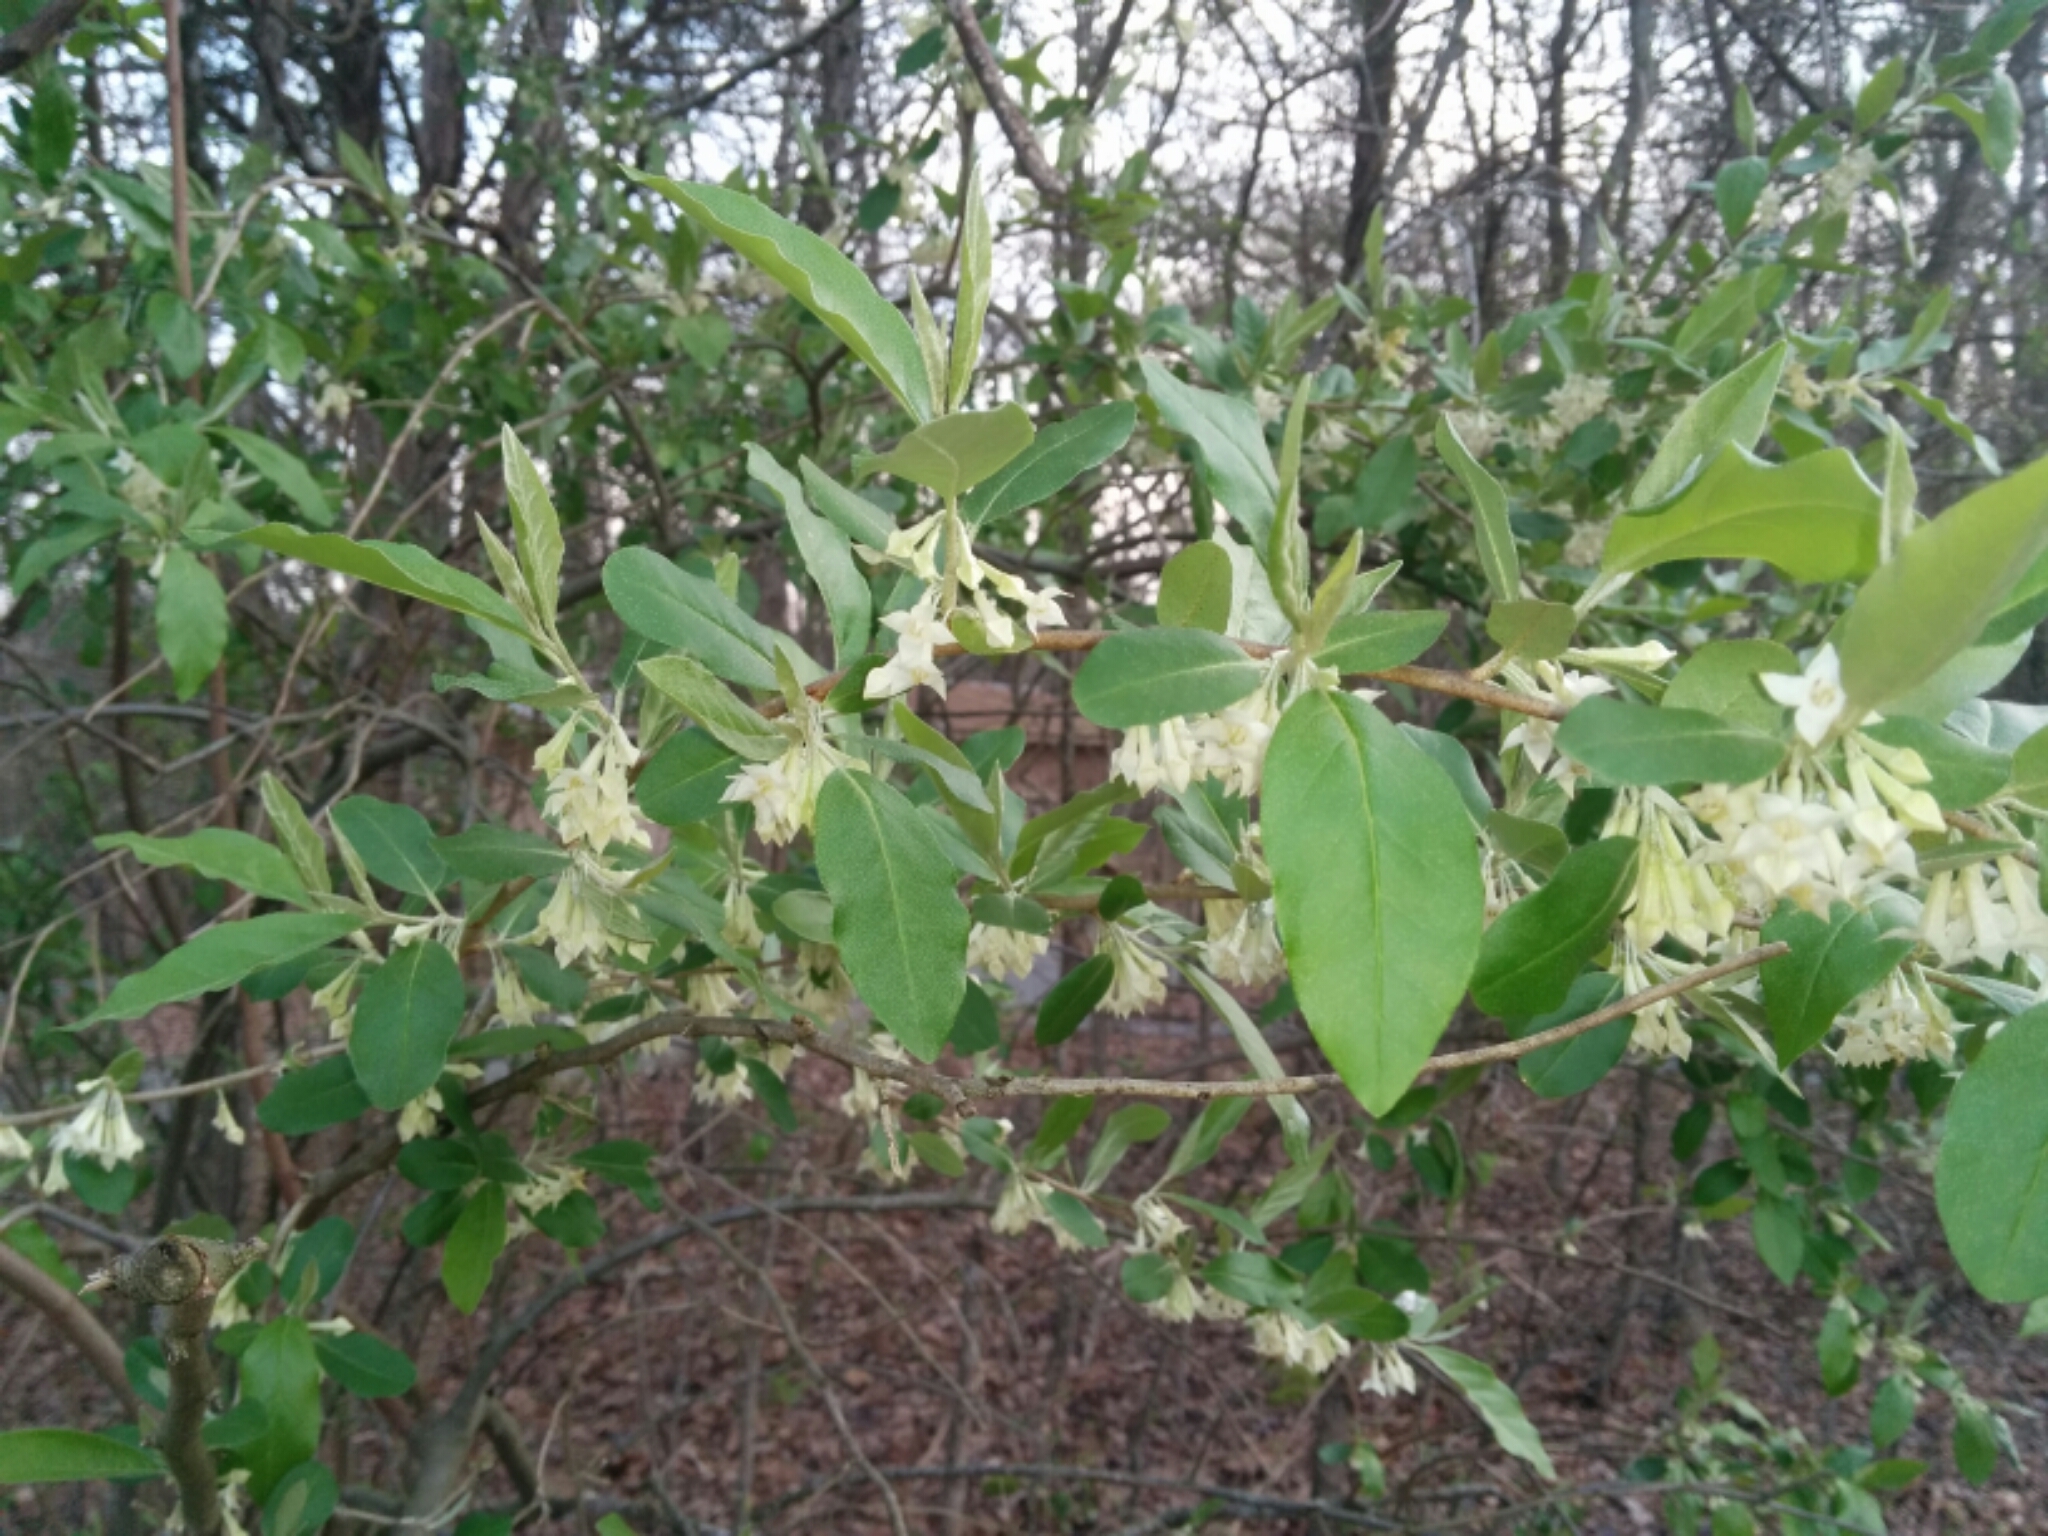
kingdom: Plantae
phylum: Tracheophyta
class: Magnoliopsida
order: Rosales
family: Elaeagnaceae
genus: Elaeagnus
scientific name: Elaeagnus umbellata
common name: Autumn olive
